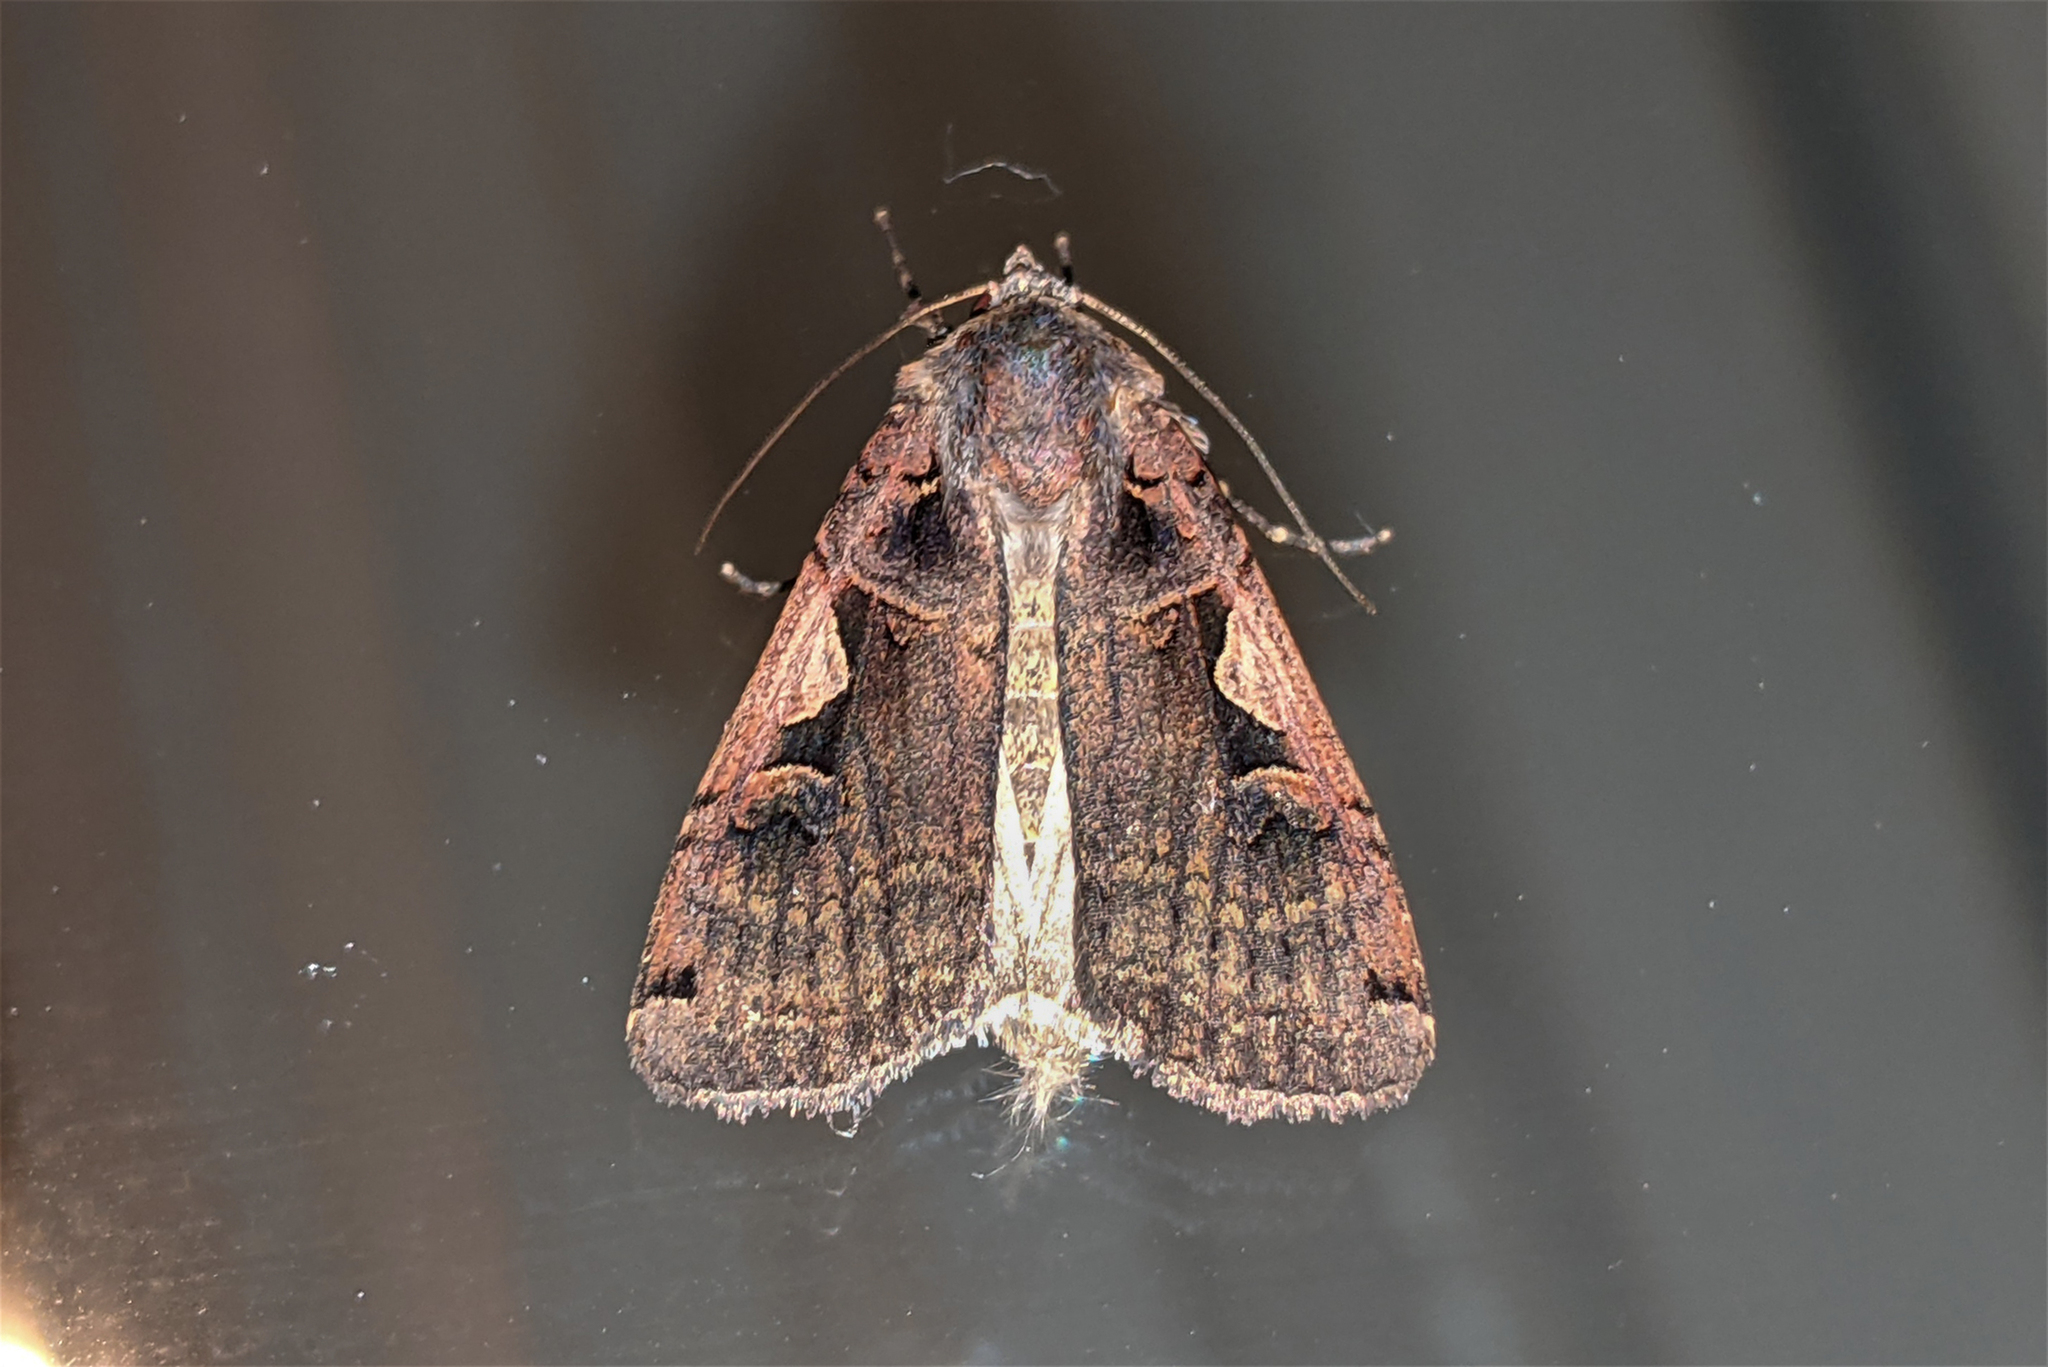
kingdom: Animalia
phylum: Arthropoda
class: Insecta
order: Lepidoptera
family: Noctuidae
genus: Xestia
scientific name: Xestia c-nigrum
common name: Setaceous hebrew character
